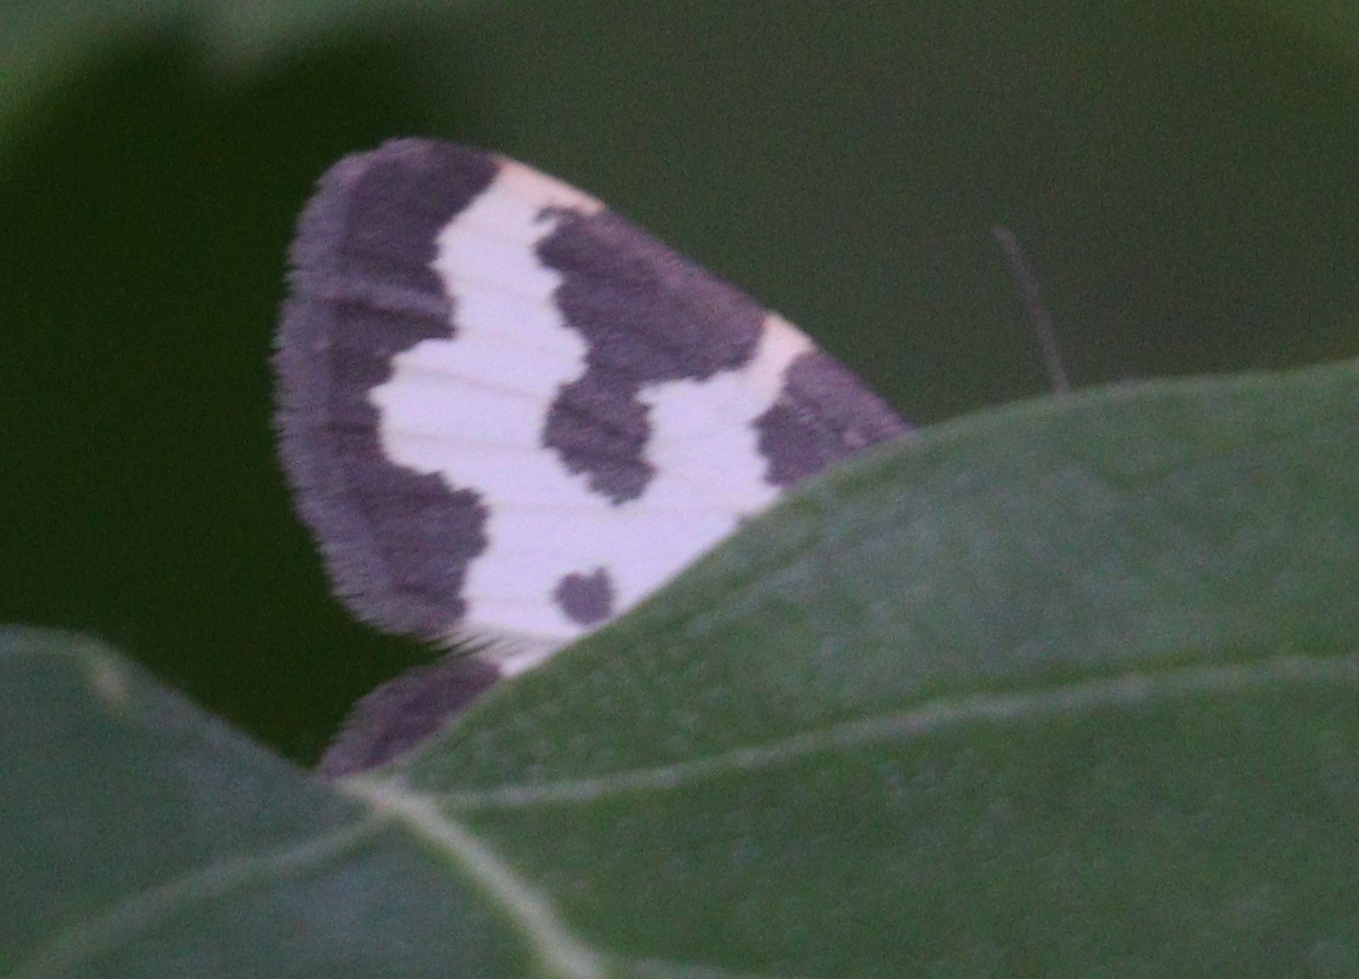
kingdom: Animalia
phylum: Arthropoda
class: Insecta
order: Lepidoptera
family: Geometridae
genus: Lomaspilis
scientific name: Lomaspilis marginata
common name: Clouded border
